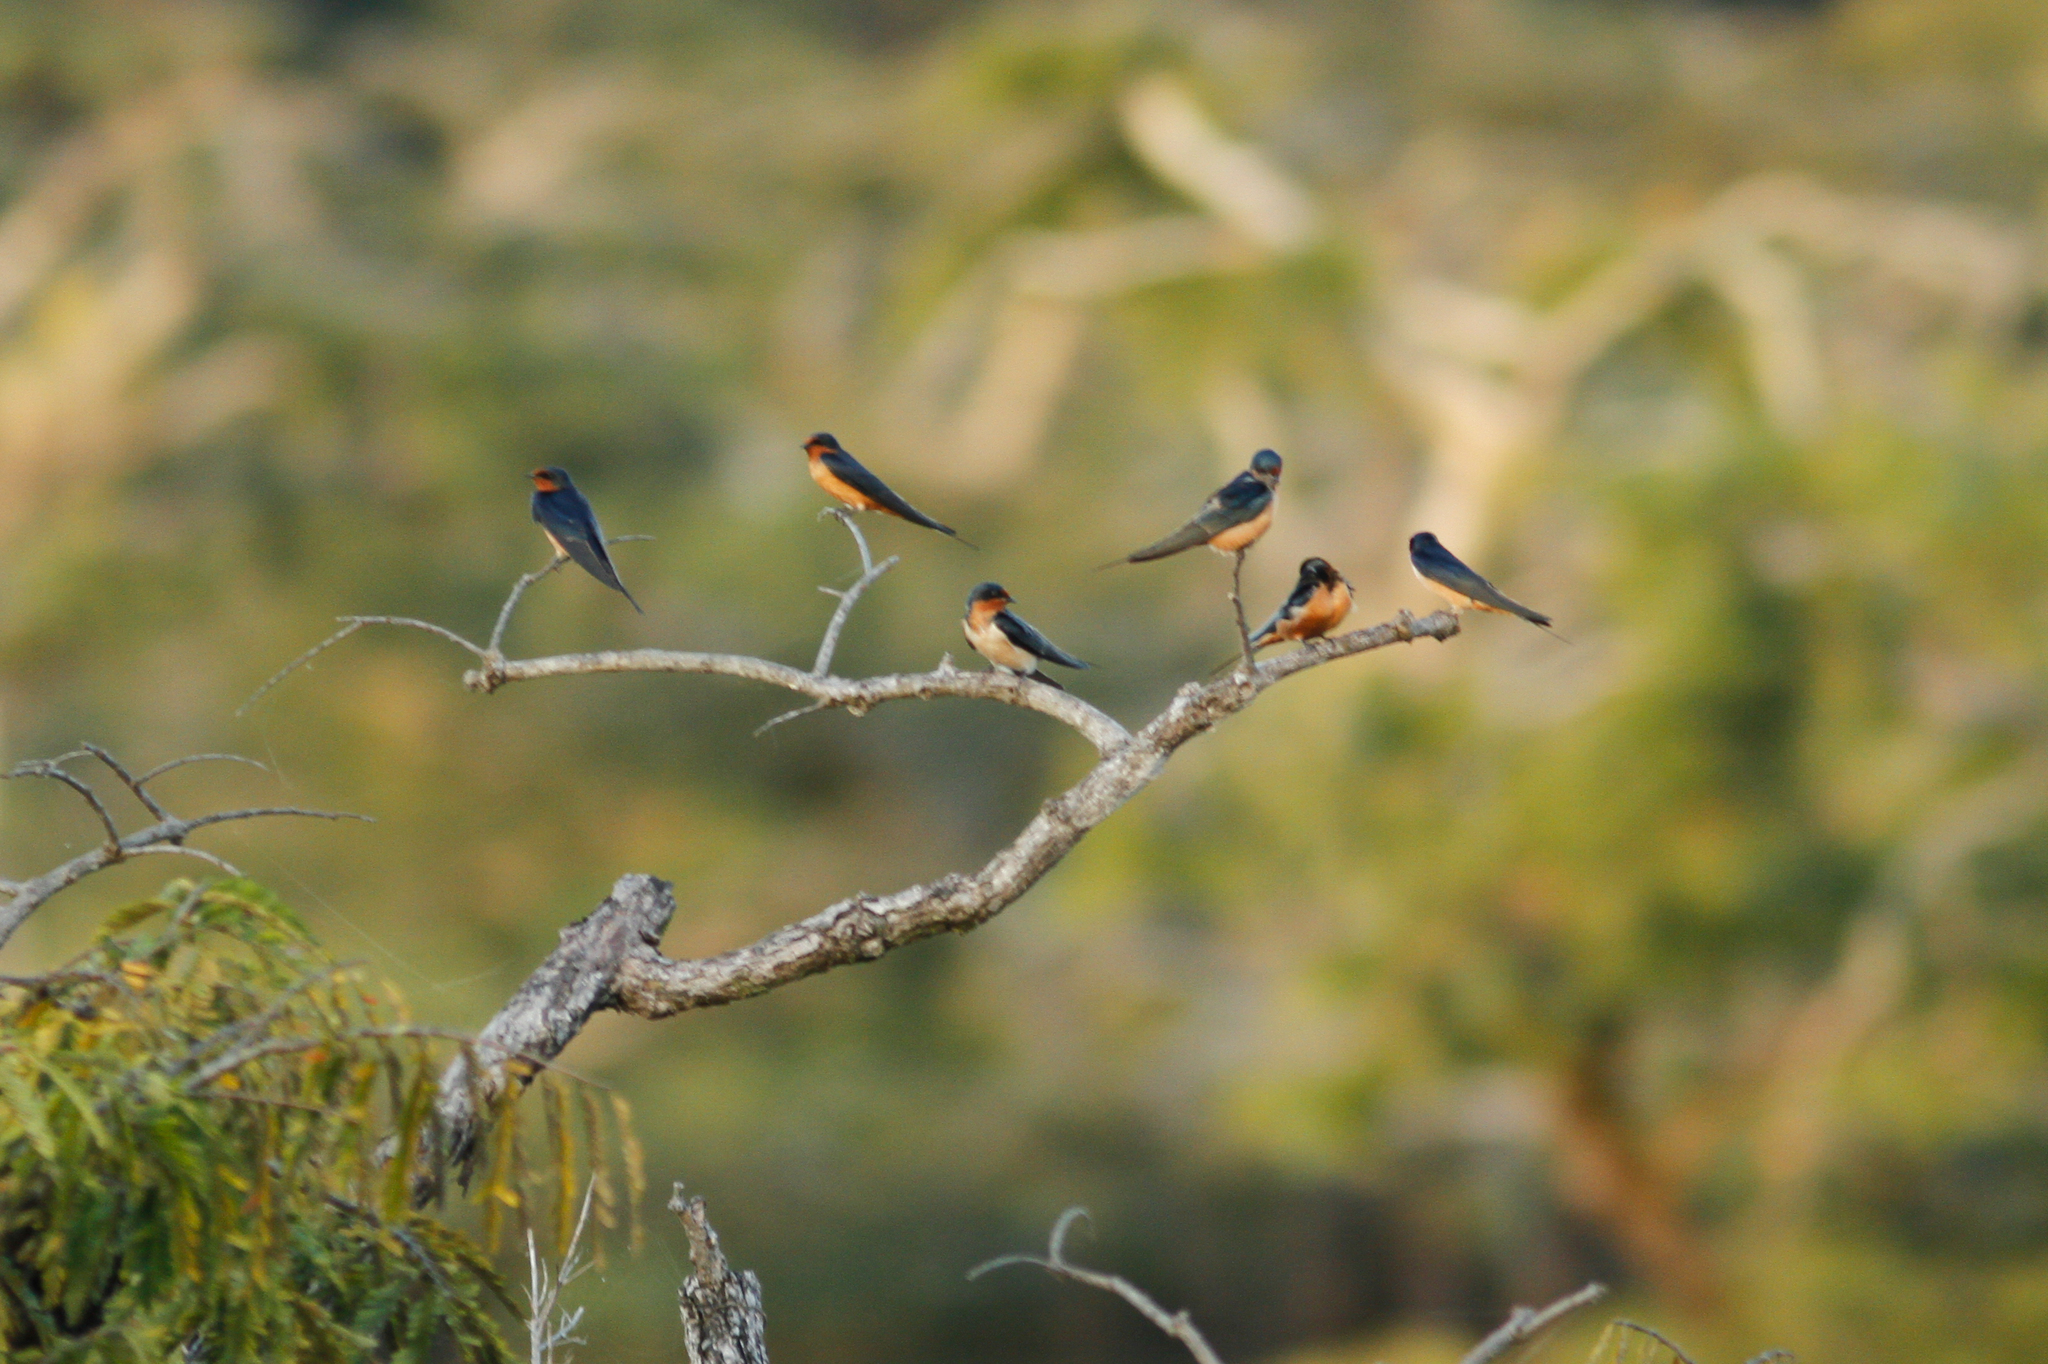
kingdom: Animalia
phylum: Chordata
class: Aves
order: Passeriformes
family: Hirundinidae
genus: Hirundo
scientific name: Hirundo rustica
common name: Barn swallow
